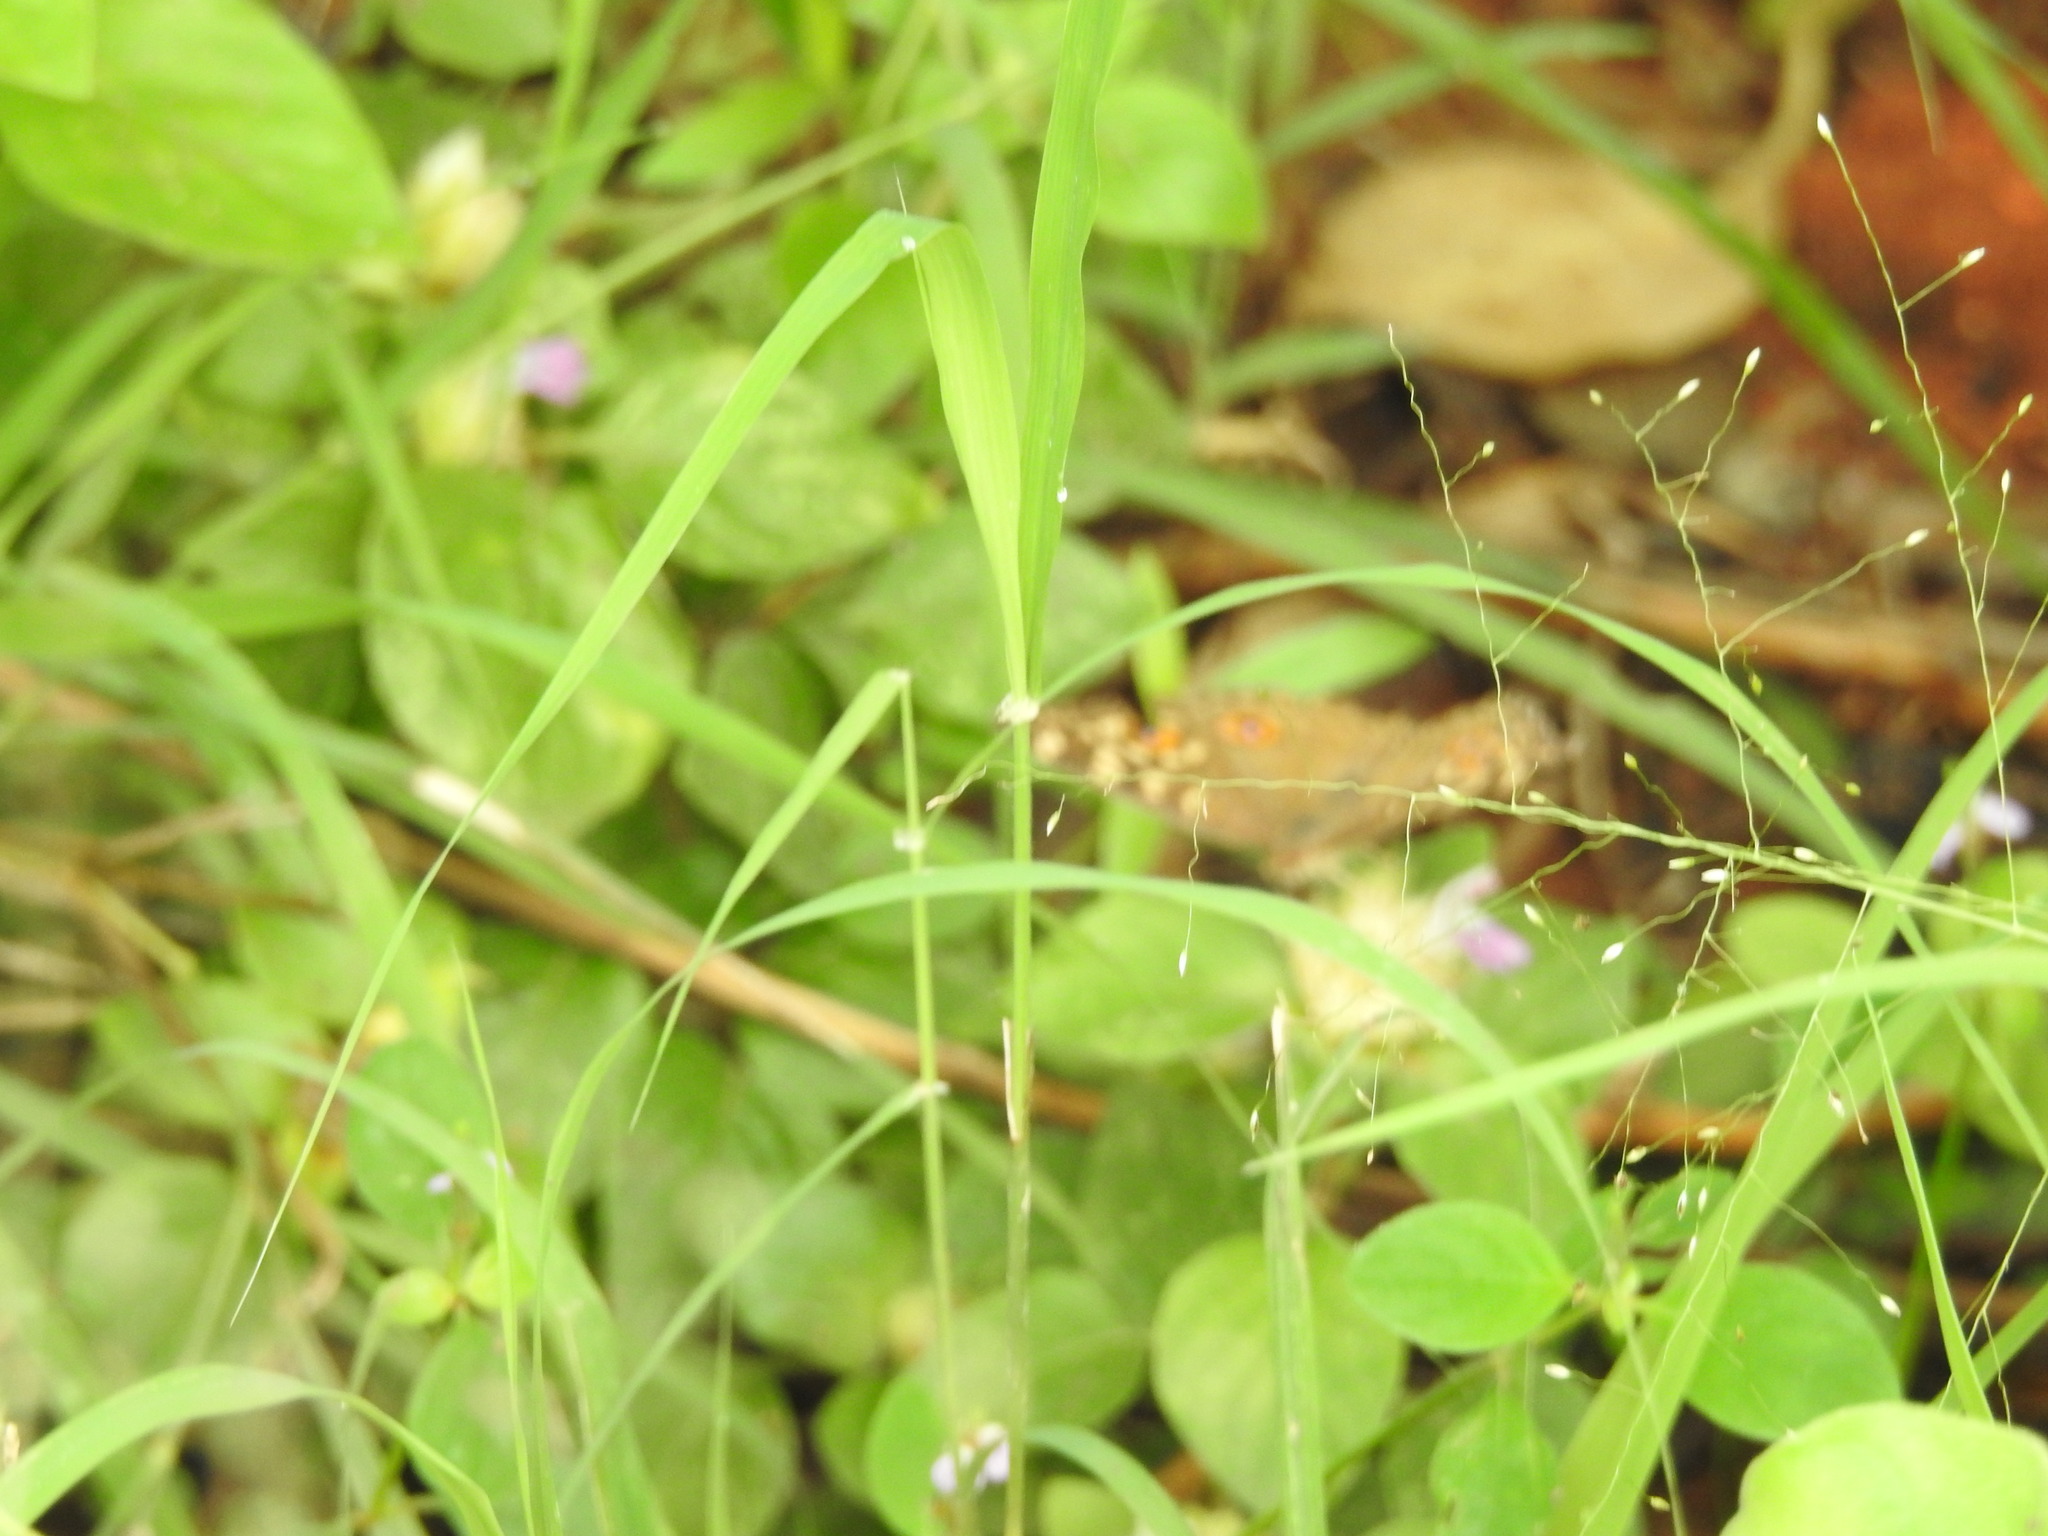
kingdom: Animalia
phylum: Arthropoda
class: Insecta
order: Lepidoptera
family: Nymphalidae
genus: Junonia
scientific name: Junonia lemonias
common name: Lemon pansy
